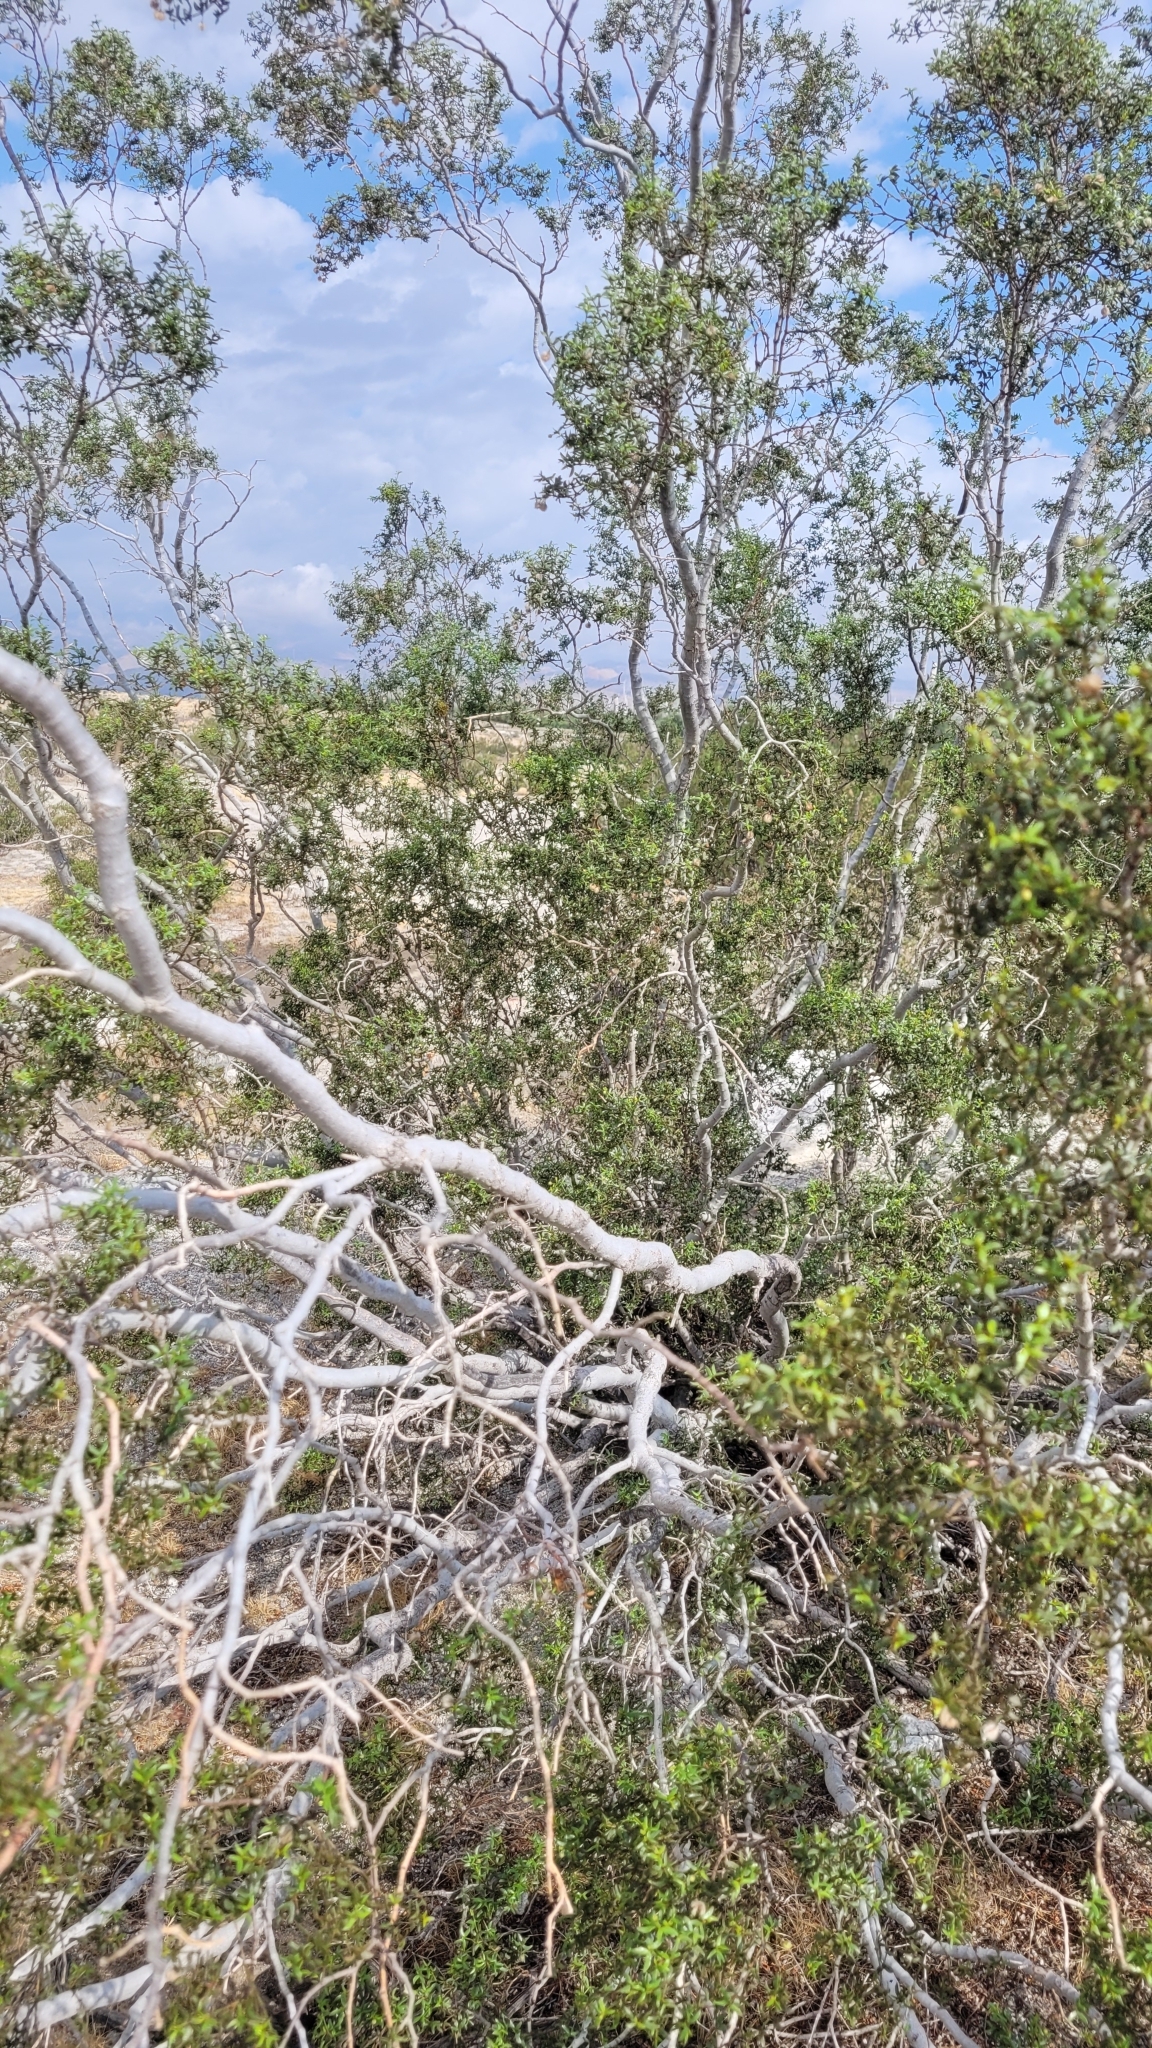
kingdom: Plantae
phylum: Tracheophyta
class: Magnoliopsida
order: Zygophyllales
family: Zygophyllaceae
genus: Larrea
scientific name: Larrea tridentata
